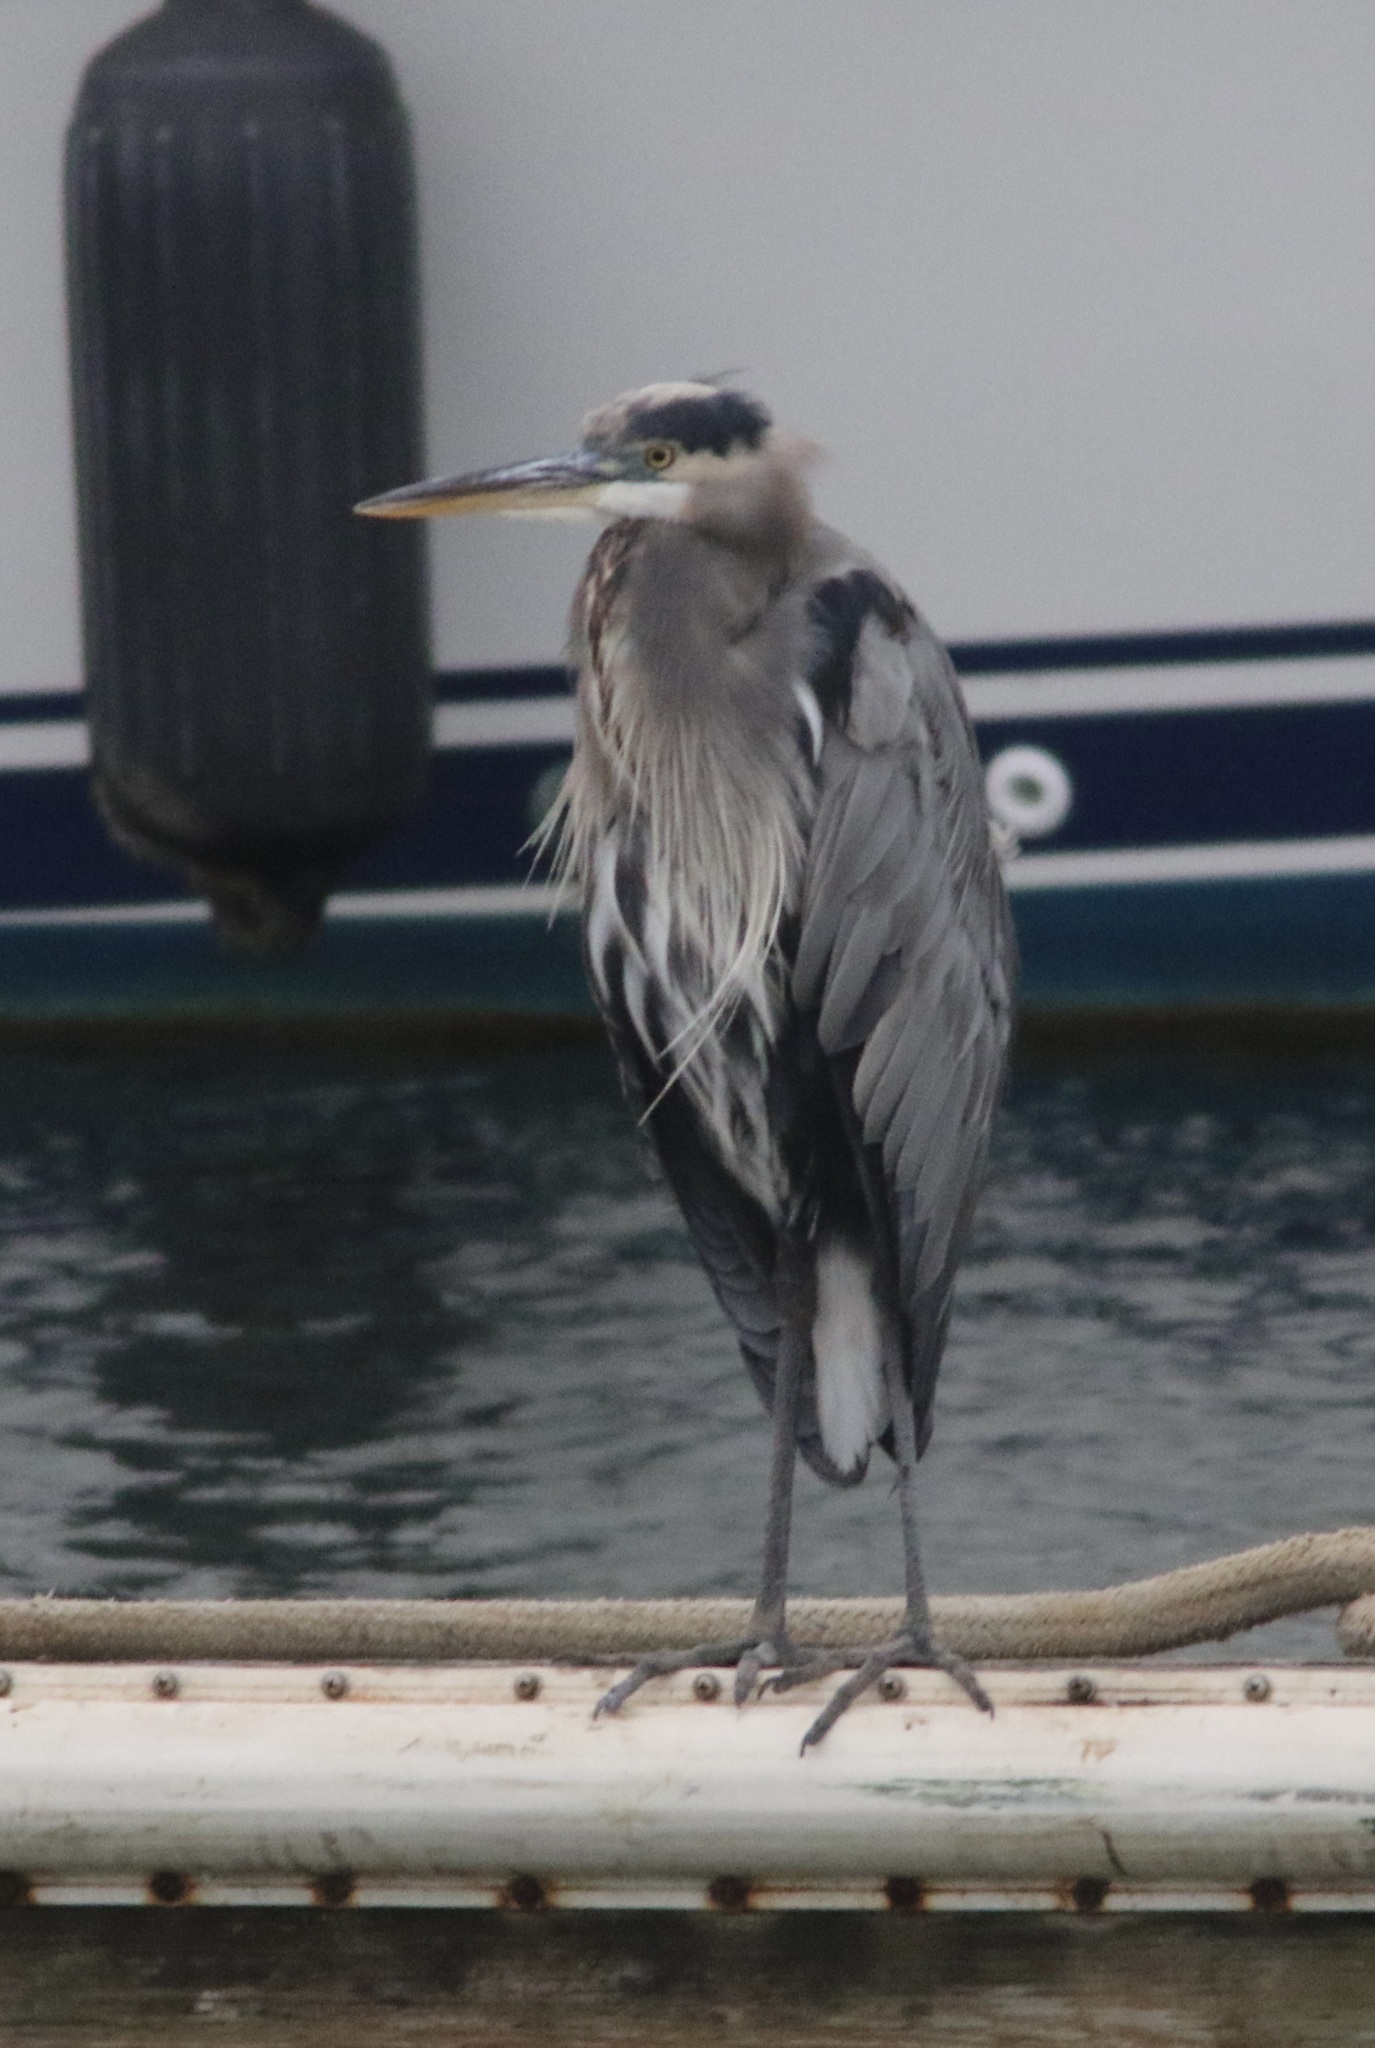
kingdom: Animalia
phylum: Chordata
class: Aves
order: Pelecaniformes
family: Ardeidae
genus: Ardea
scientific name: Ardea herodias
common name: Great blue heron
